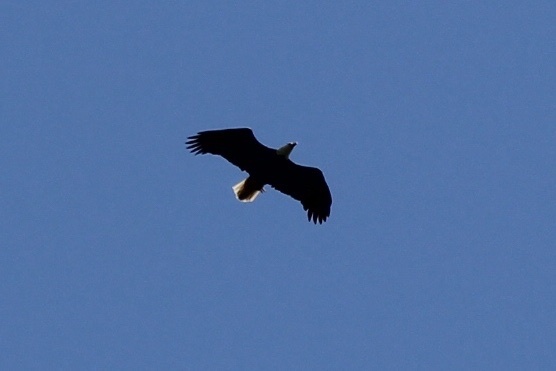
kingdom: Animalia
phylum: Chordata
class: Aves
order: Accipitriformes
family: Accipitridae
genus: Haliaeetus
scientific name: Haliaeetus leucocephalus
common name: Bald eagle
